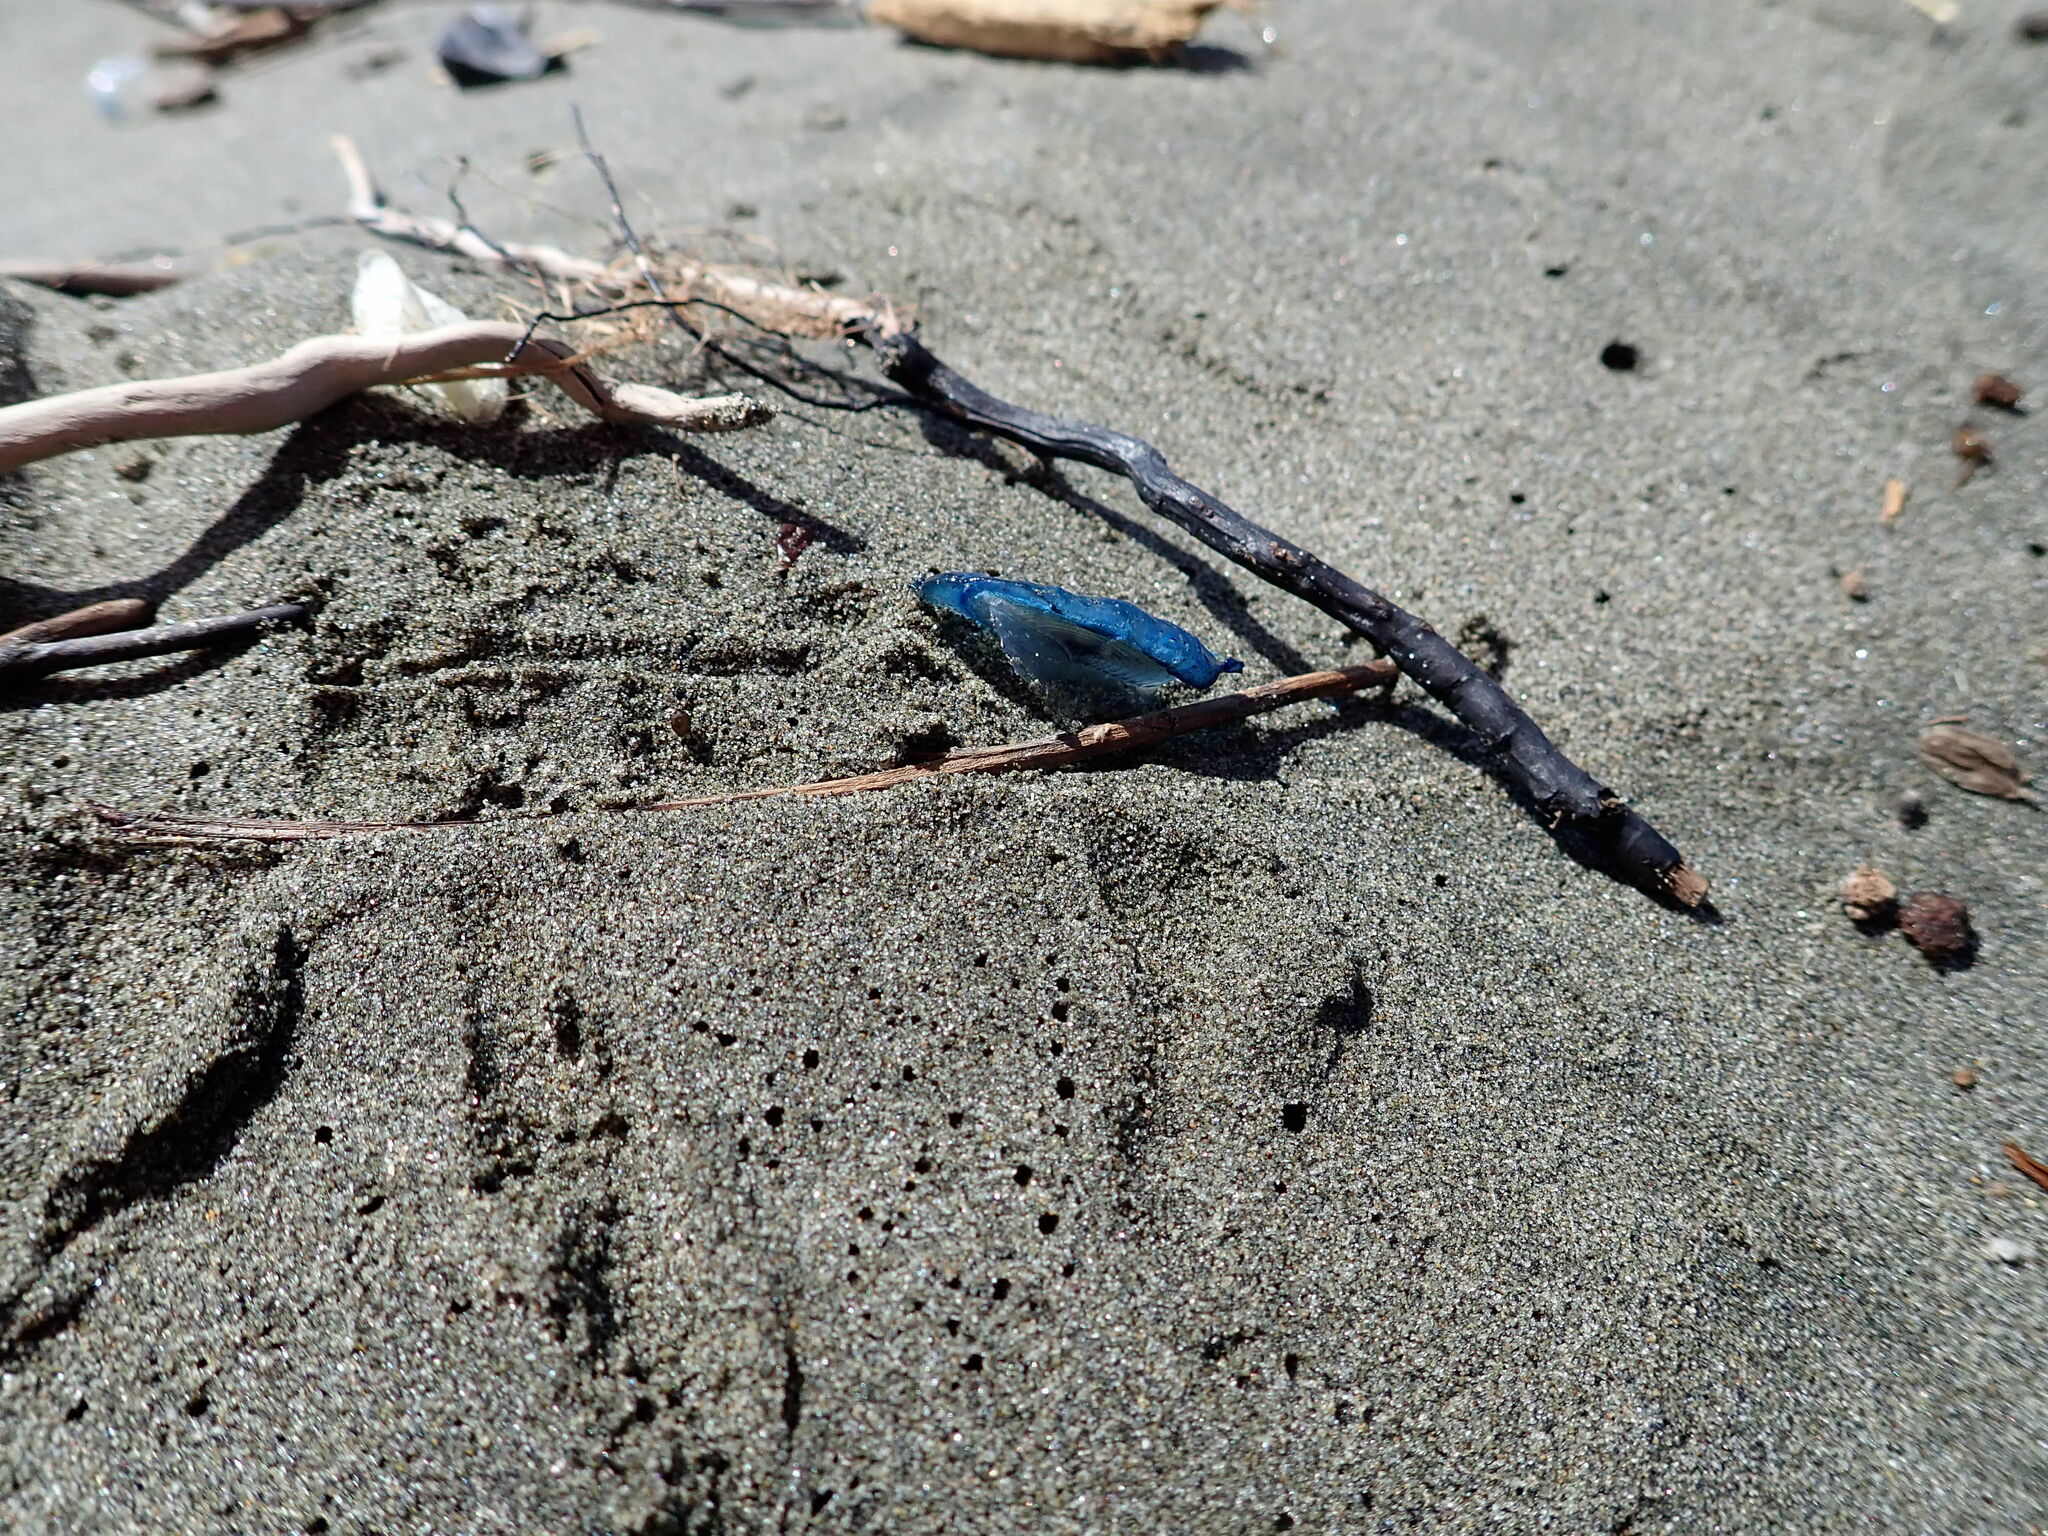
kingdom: Animalia
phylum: Cnidaria
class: Hydrozoa
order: Anthoathecata
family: Porpitidae
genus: Velella
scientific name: Velella velella
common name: By-the-wind-sailor
